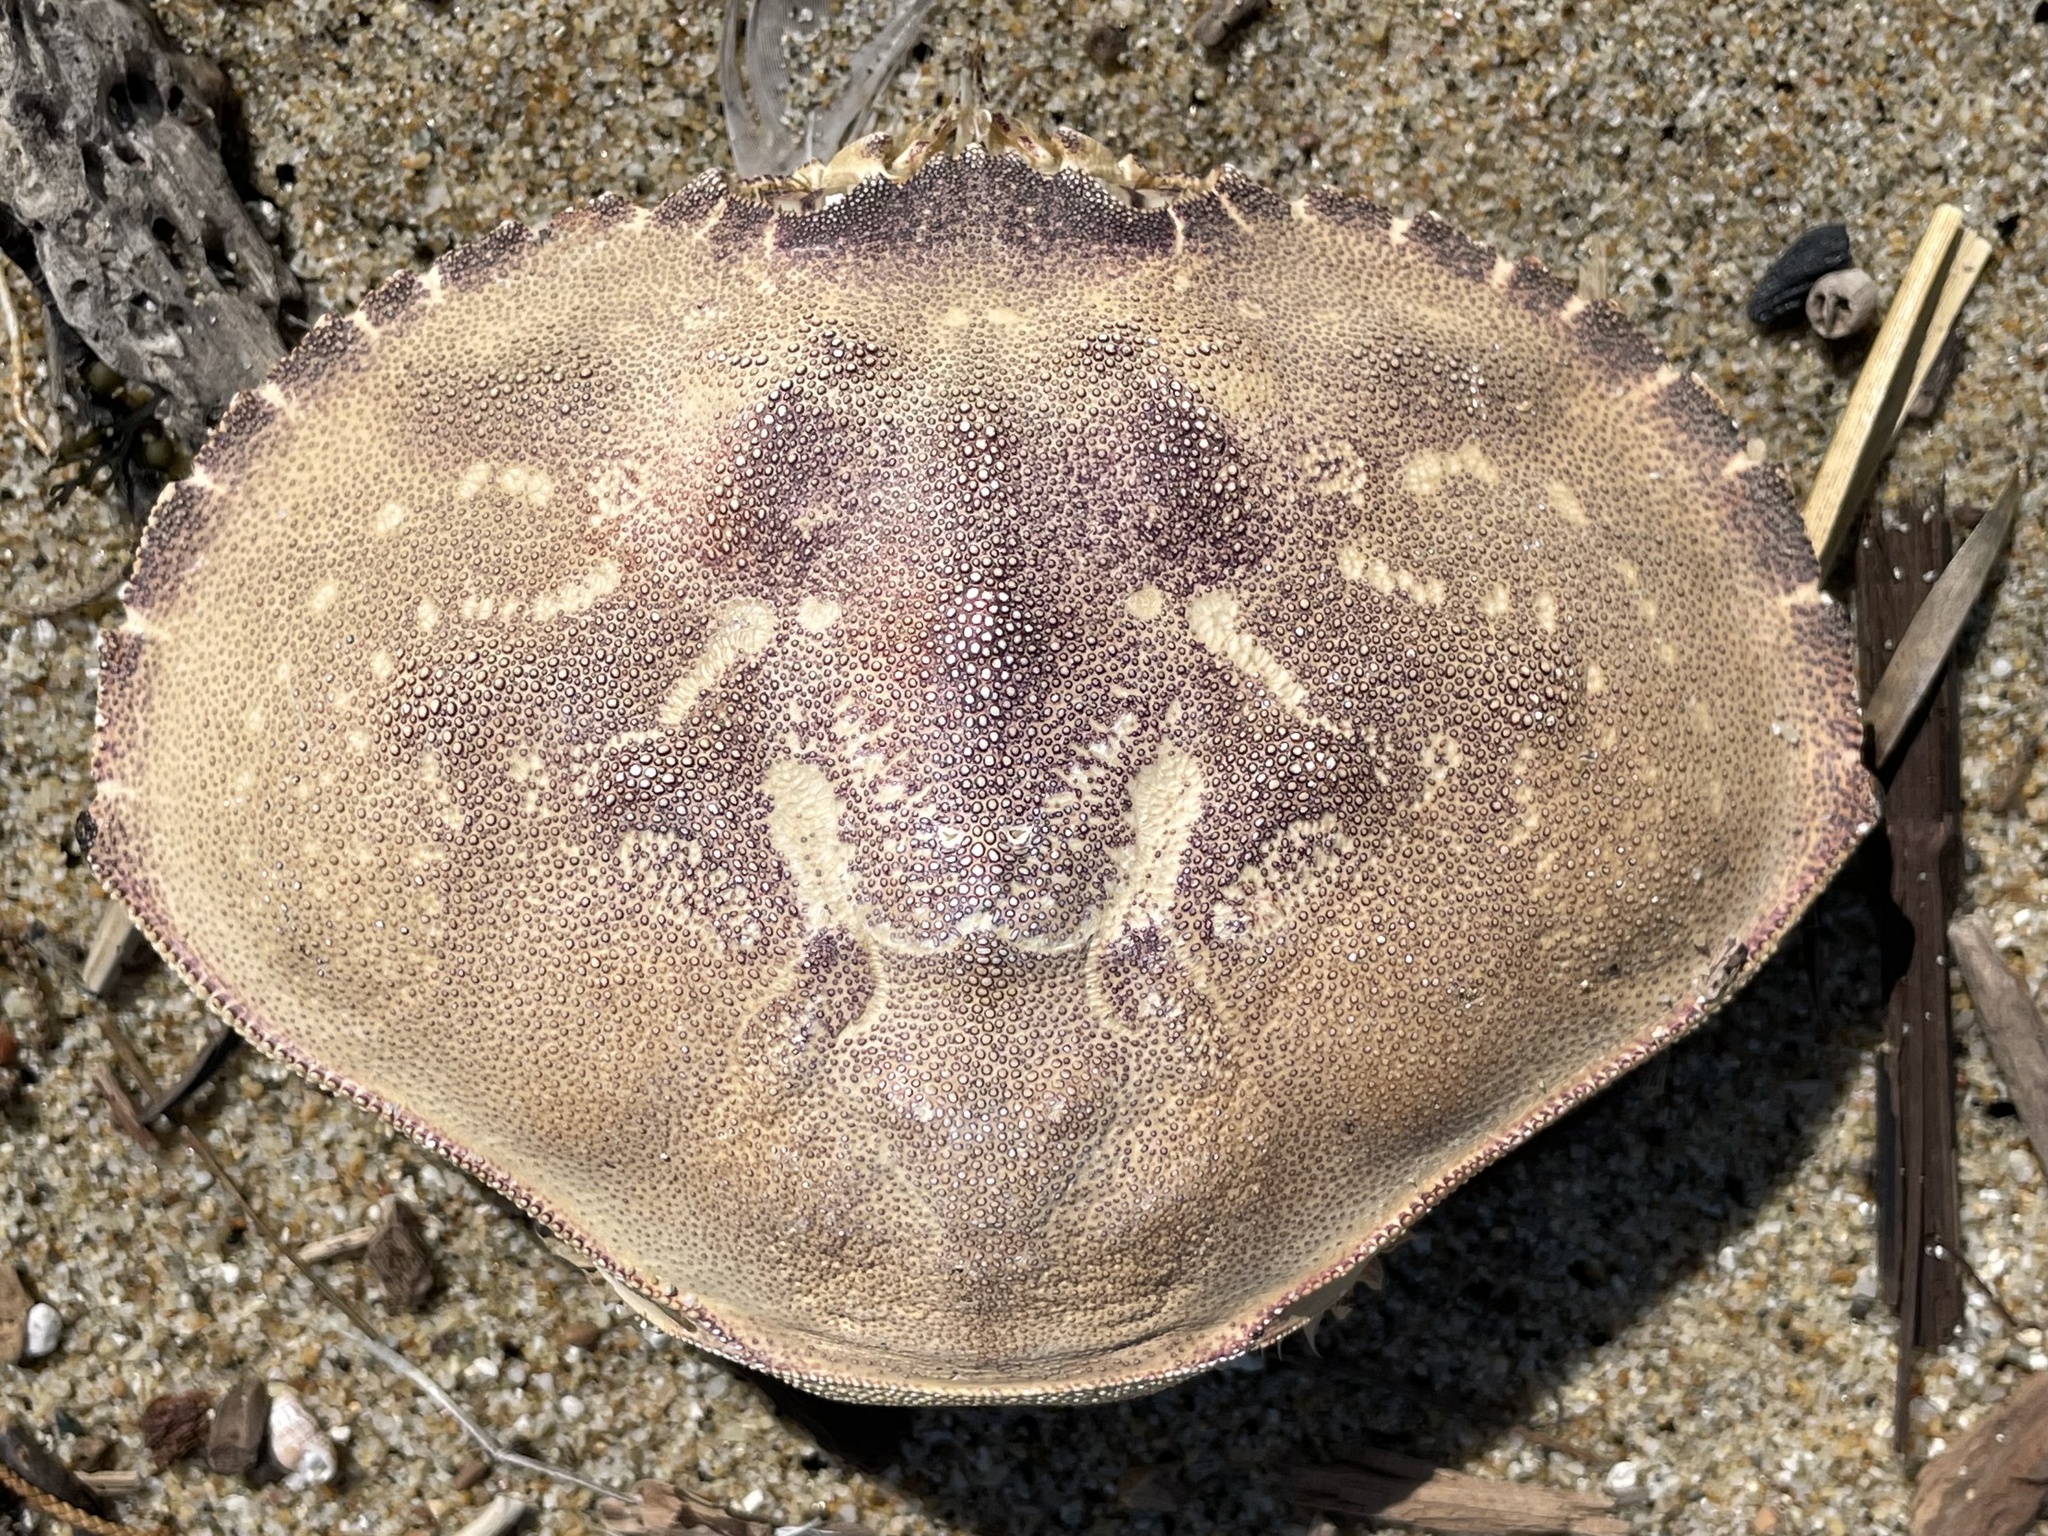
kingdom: Animalia
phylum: Arthropoda
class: Malacostraca
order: Decapoda
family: Cancridae
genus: Metacarcinus
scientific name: Metacarcinus magister
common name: Californian crab
